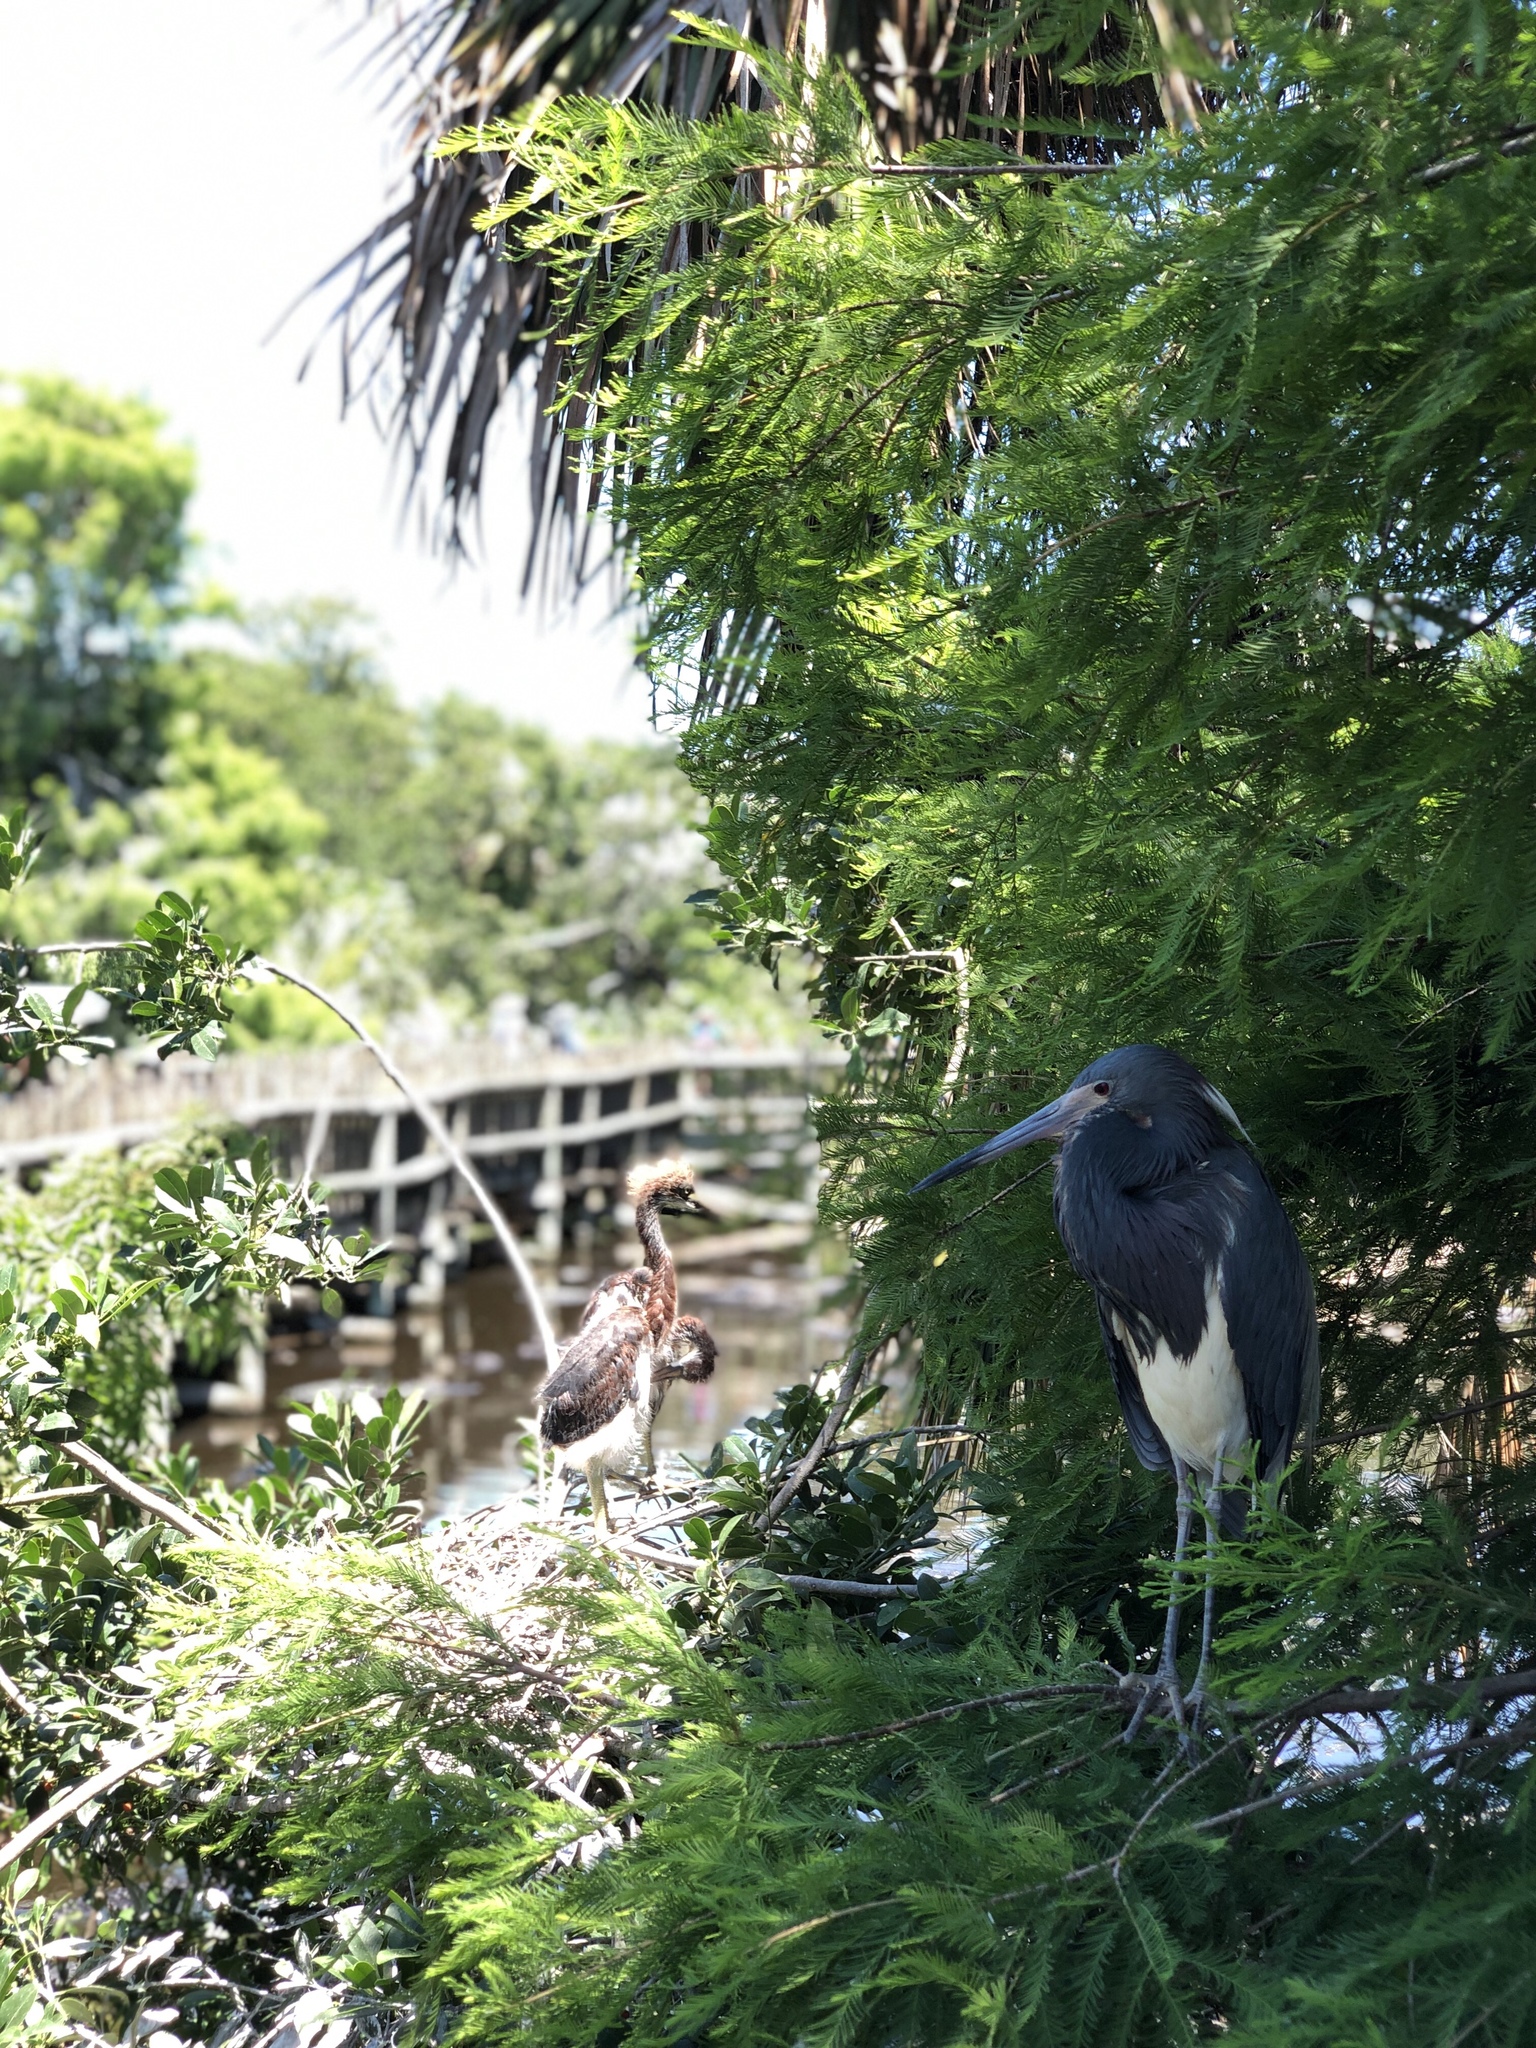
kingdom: Animalia
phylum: Chordata
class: Aves
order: Pelecaniformes
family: Ardeidae
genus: Egretta
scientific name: Egretta tricolor
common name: Tricolored heron
